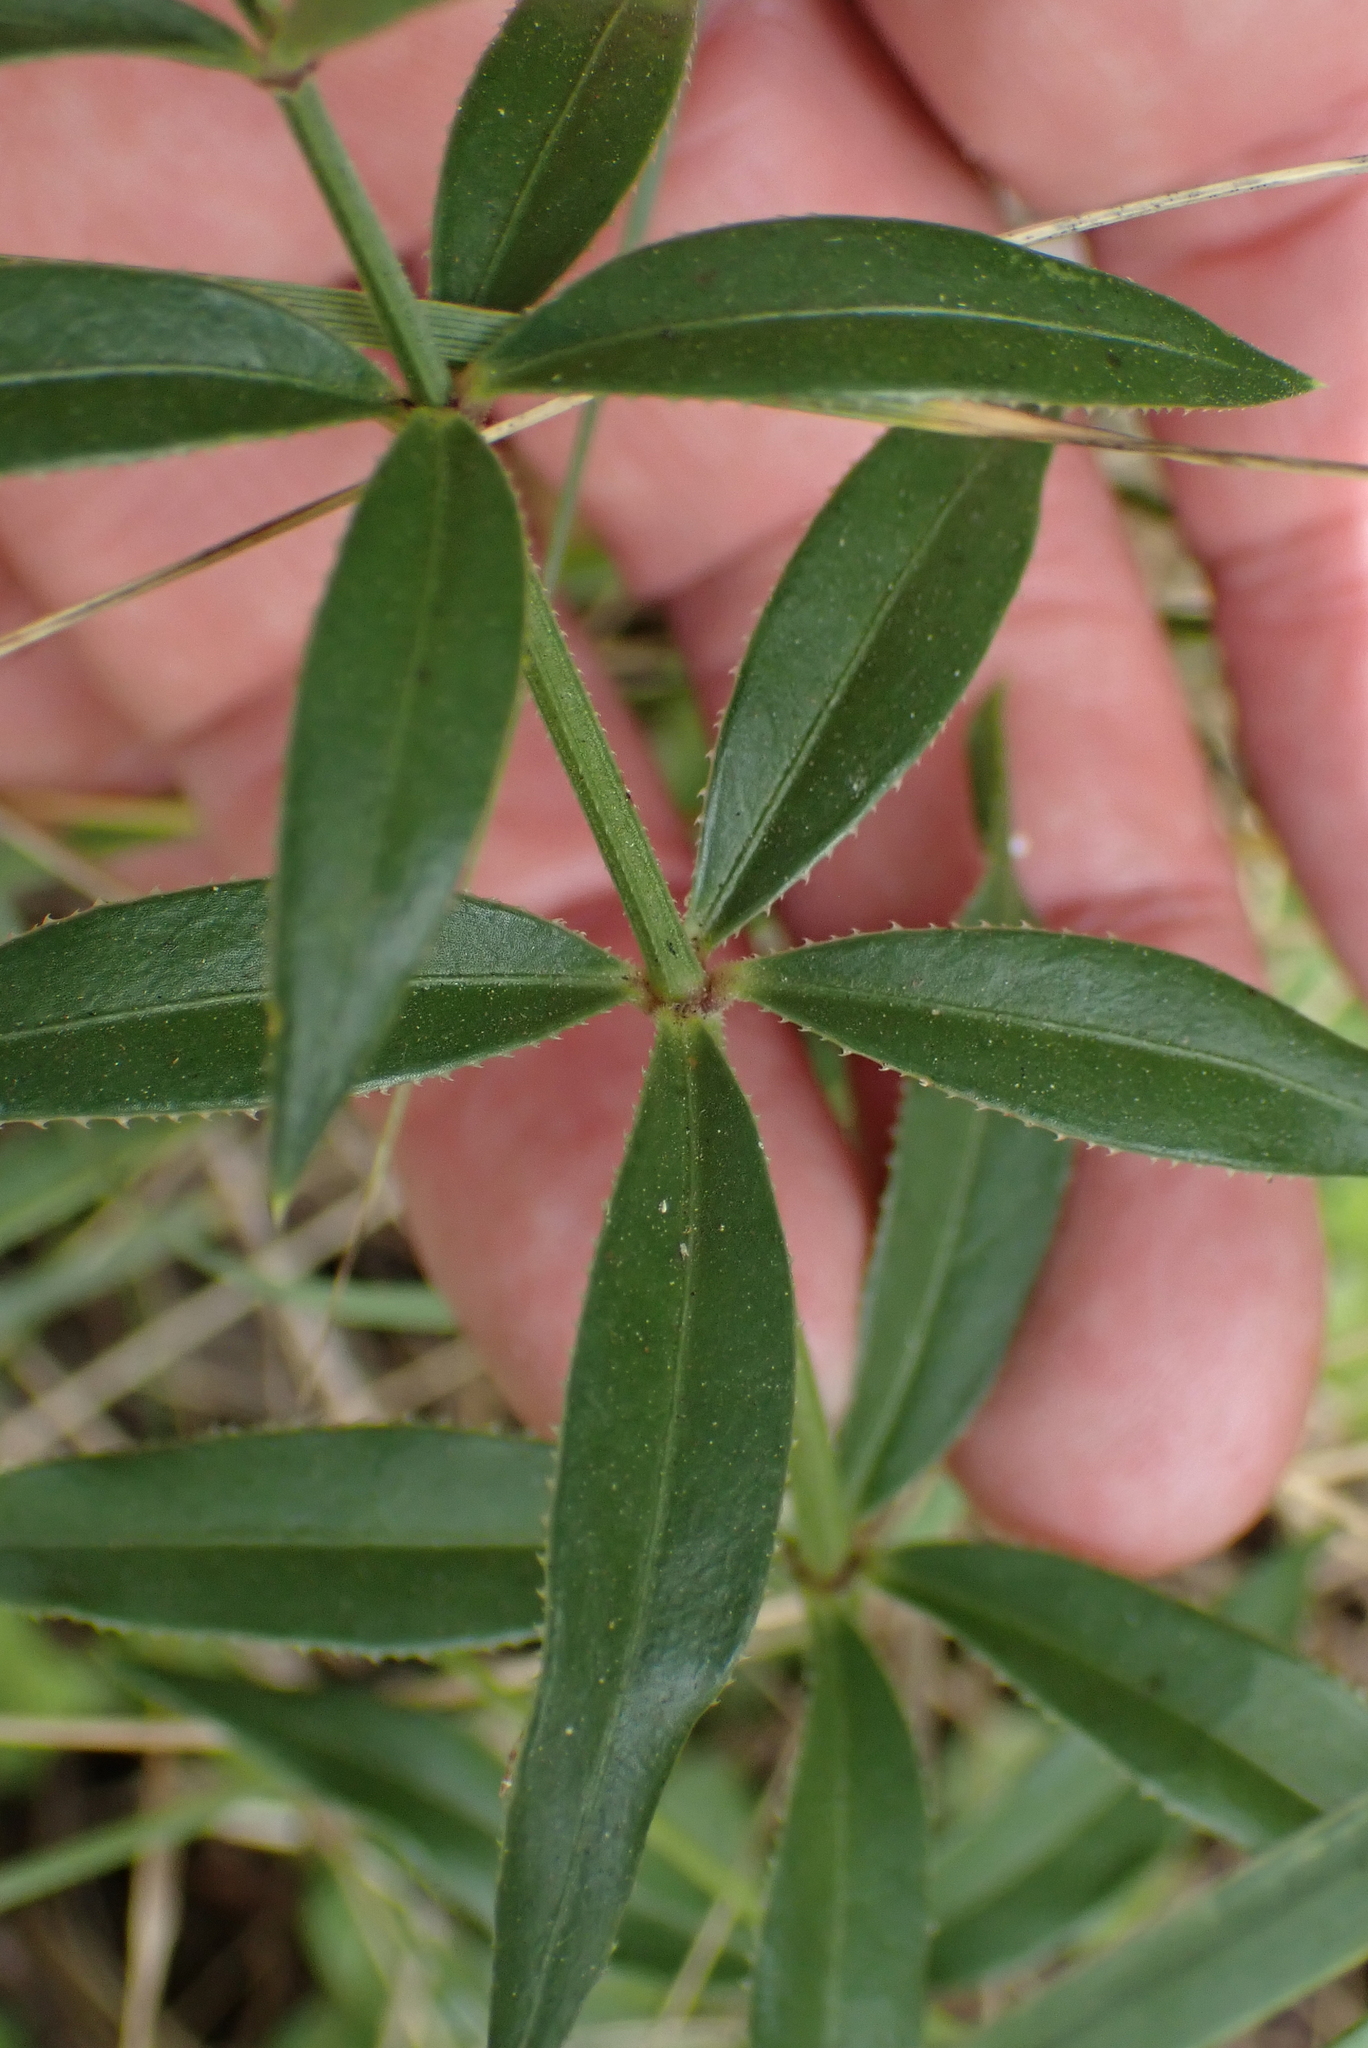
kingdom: Plantae
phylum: Tracheophyta
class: Magnoliopsida
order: Gentianales
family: Rubiaceae
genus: Rubia
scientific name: Rubia peregrina
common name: Wild madder
